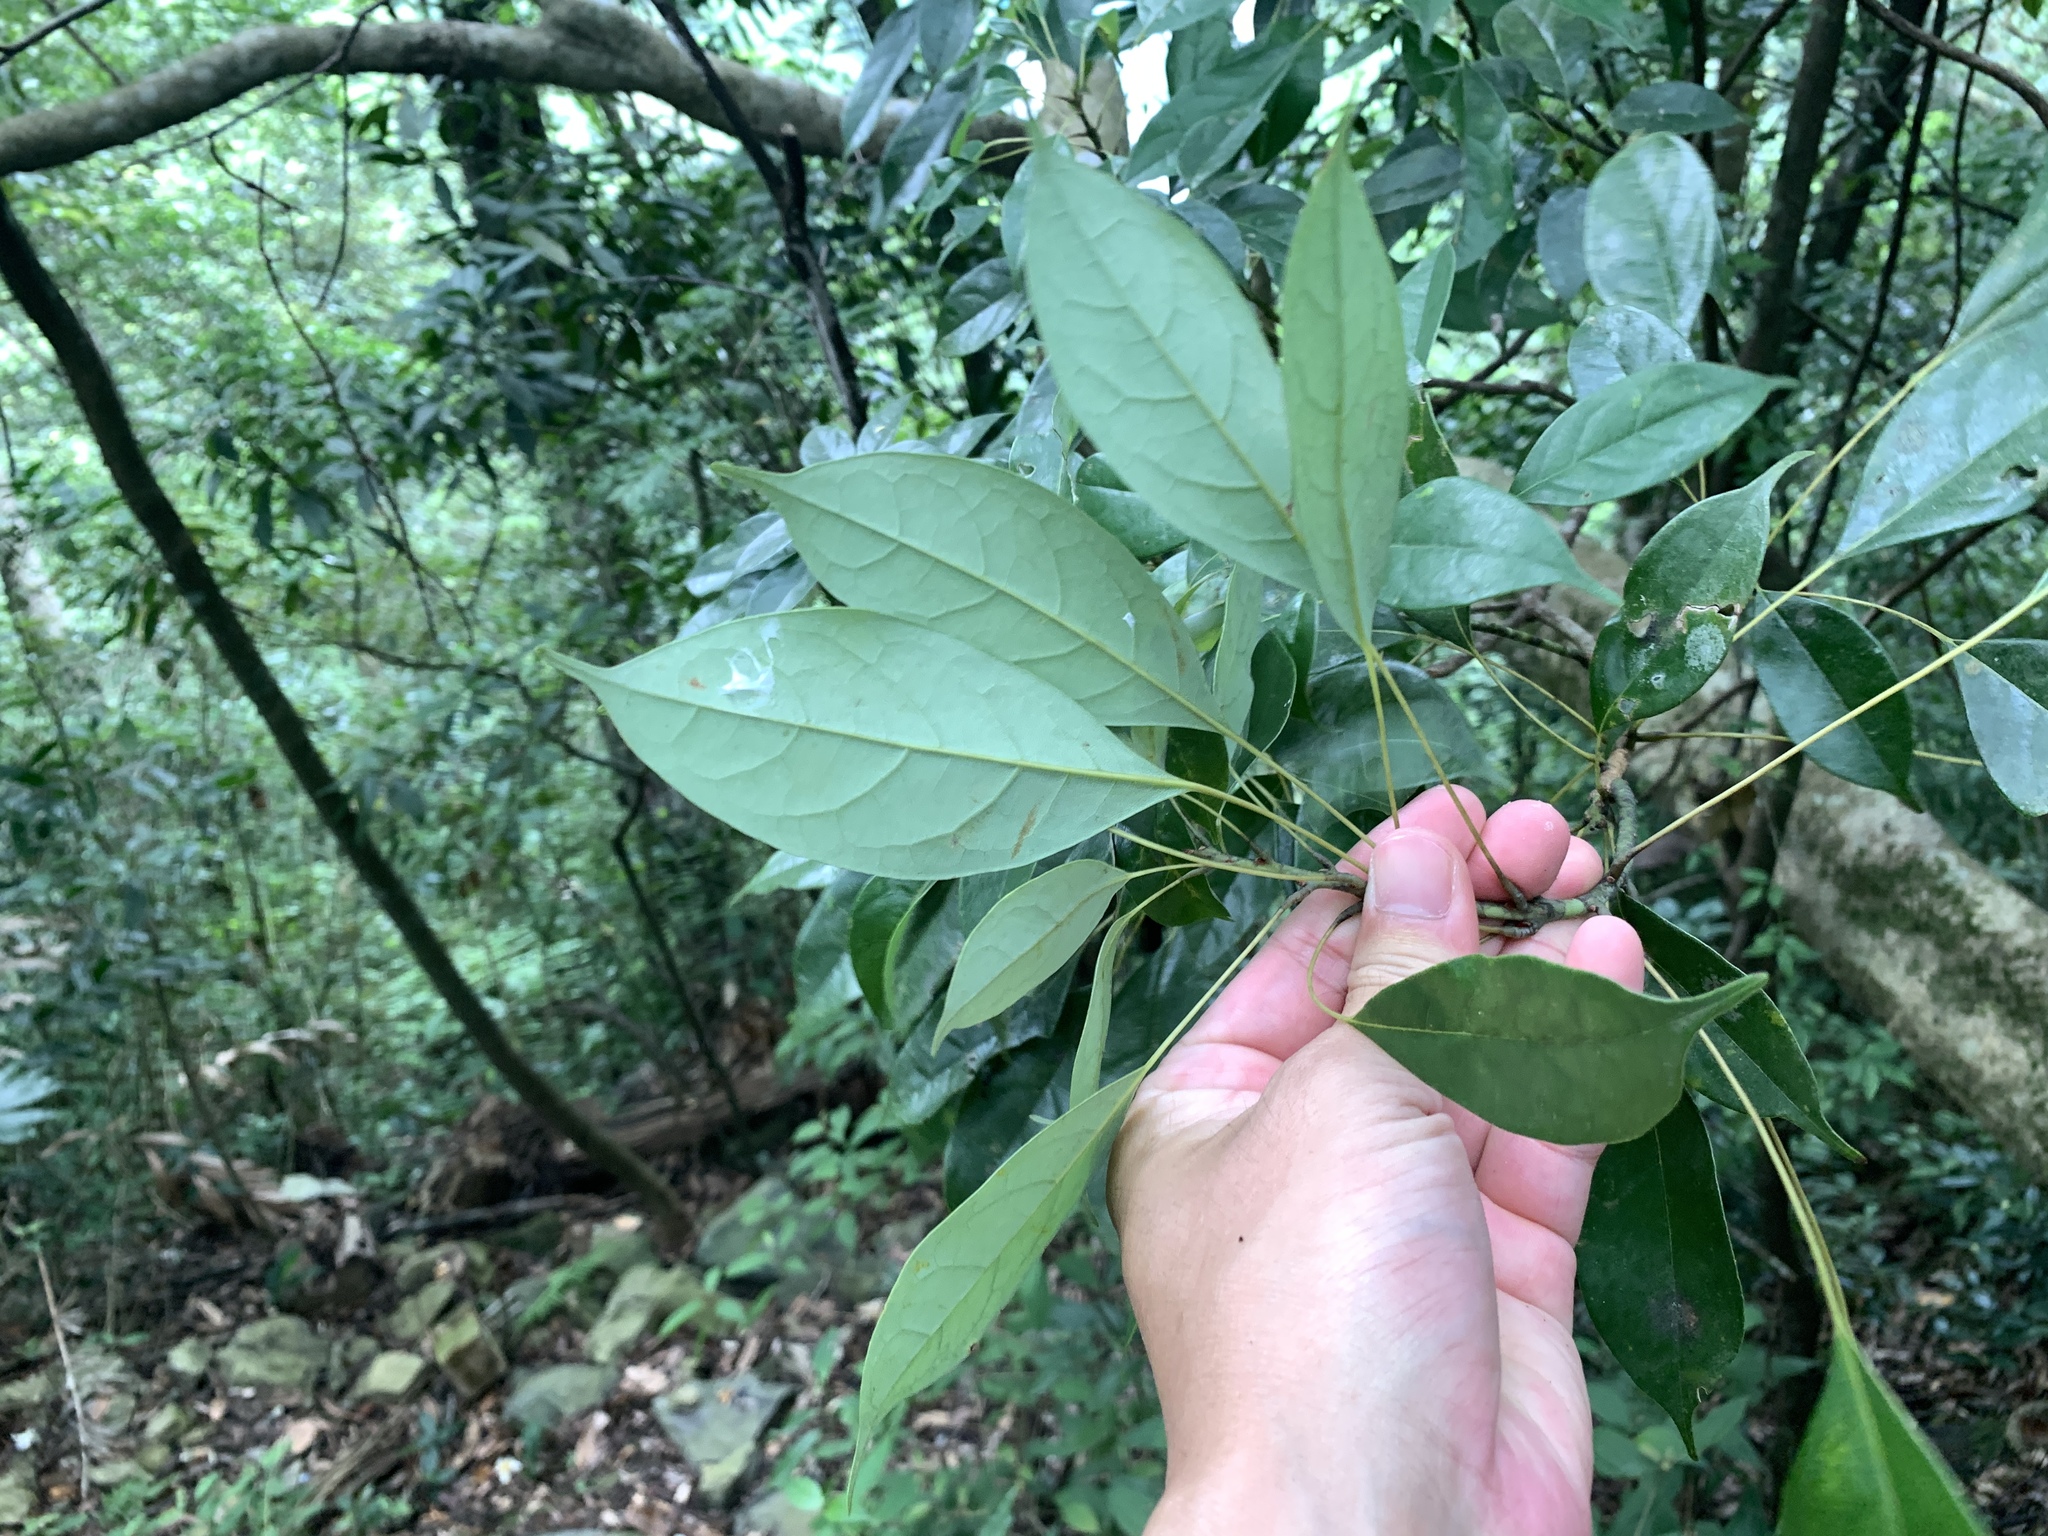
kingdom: Plantae
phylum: Tracheophyta
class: Magnoliopsida
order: Proteales
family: Sabiaceae
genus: Meliosma
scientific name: Meliosma squamulata
